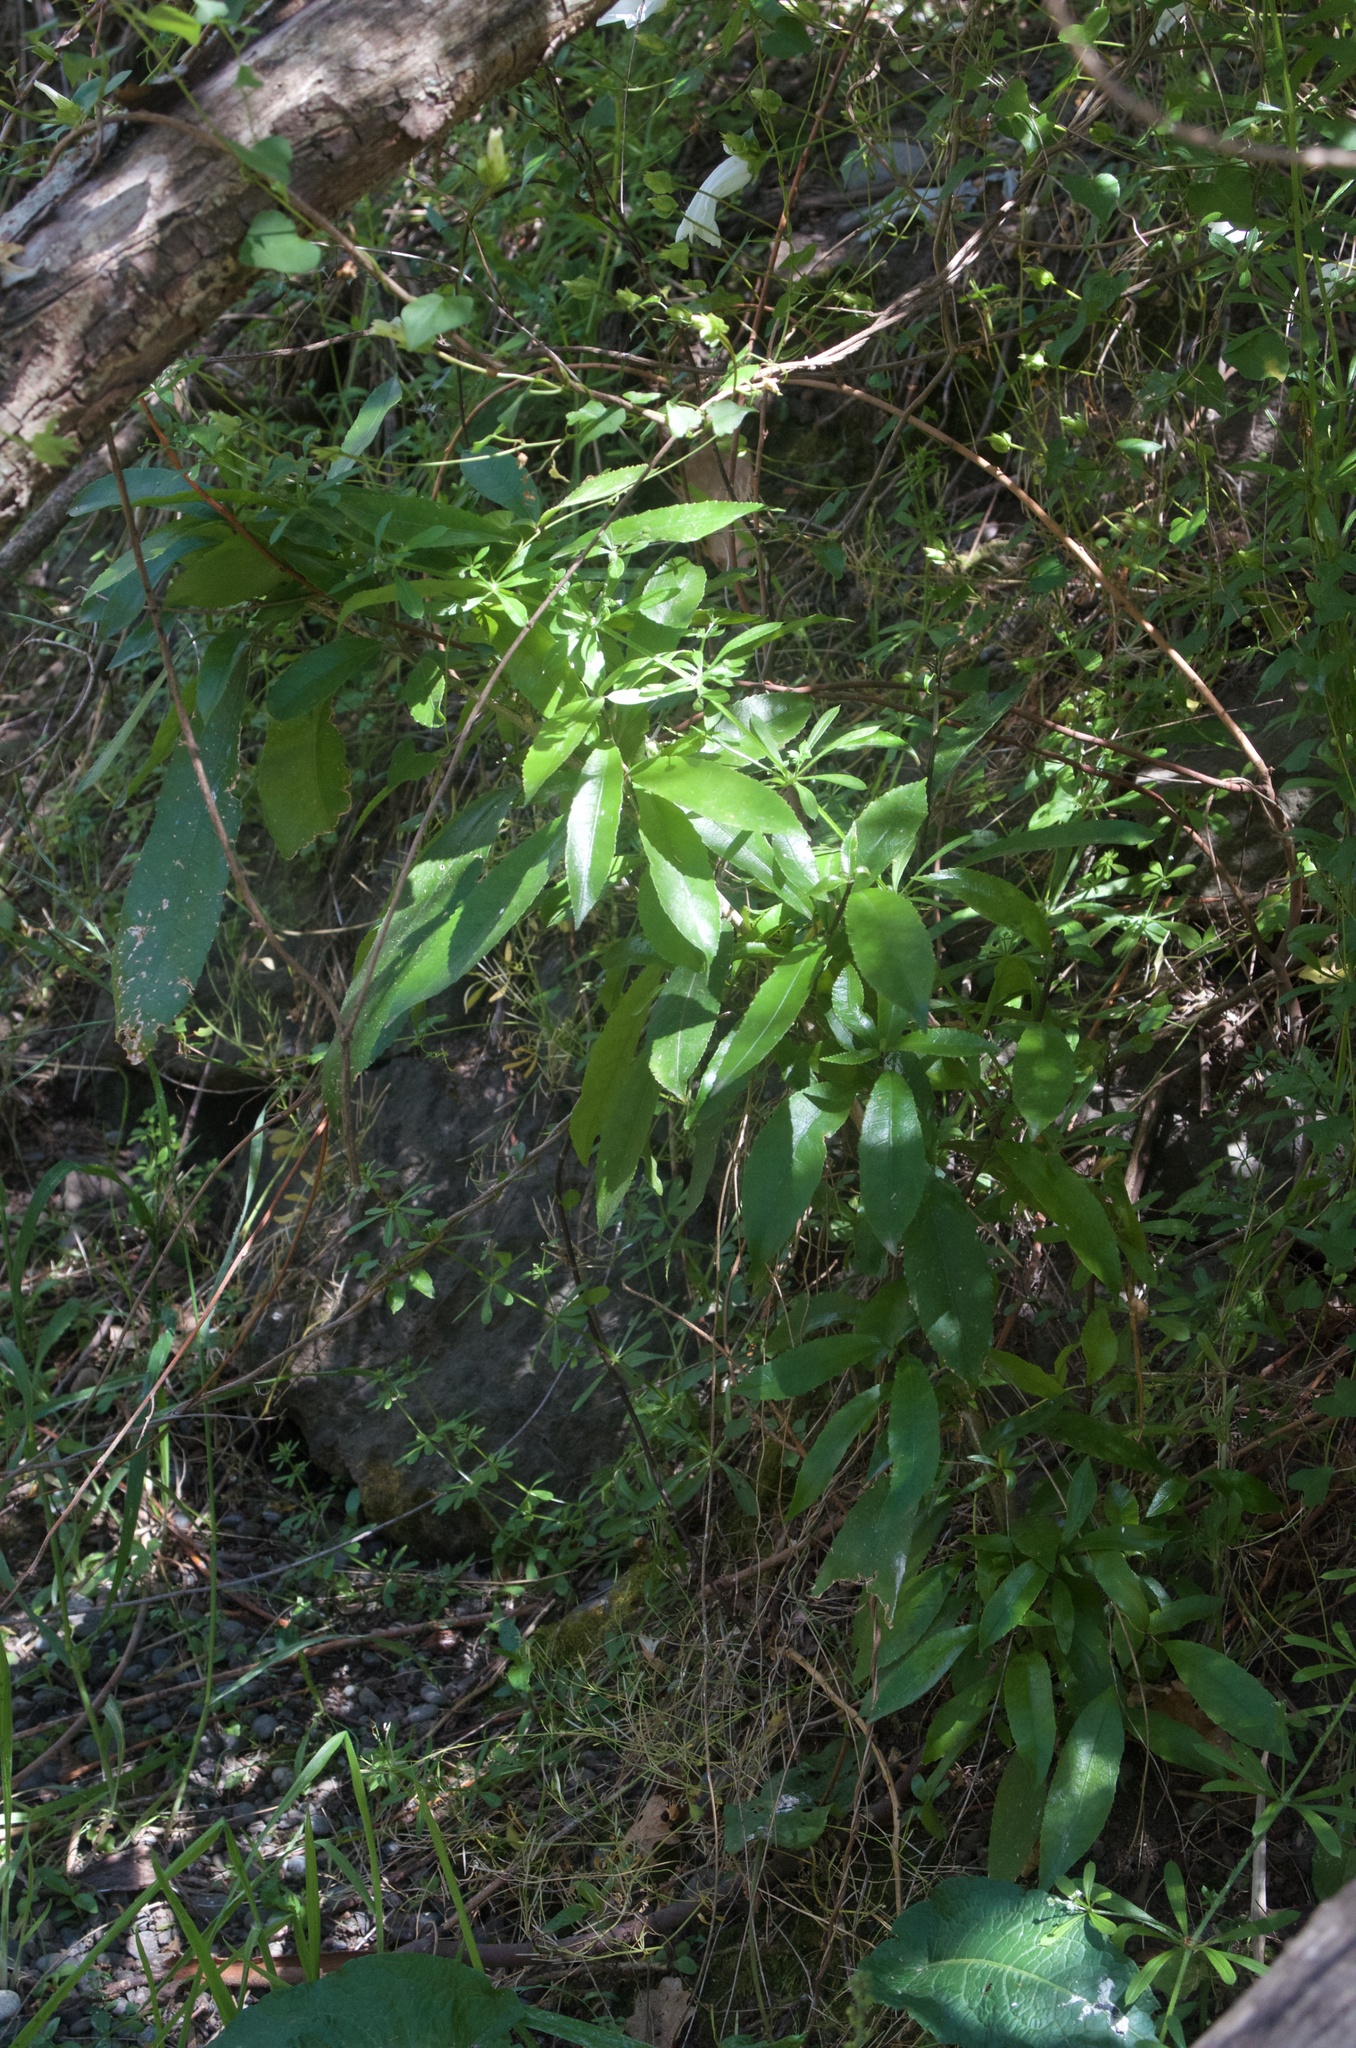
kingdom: Plantae
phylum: Tracheophyta
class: Magnoliopsida
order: Malpighiales
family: Violaceae
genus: Melicytus
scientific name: Melicytus ramiflorus
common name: Mahoe
